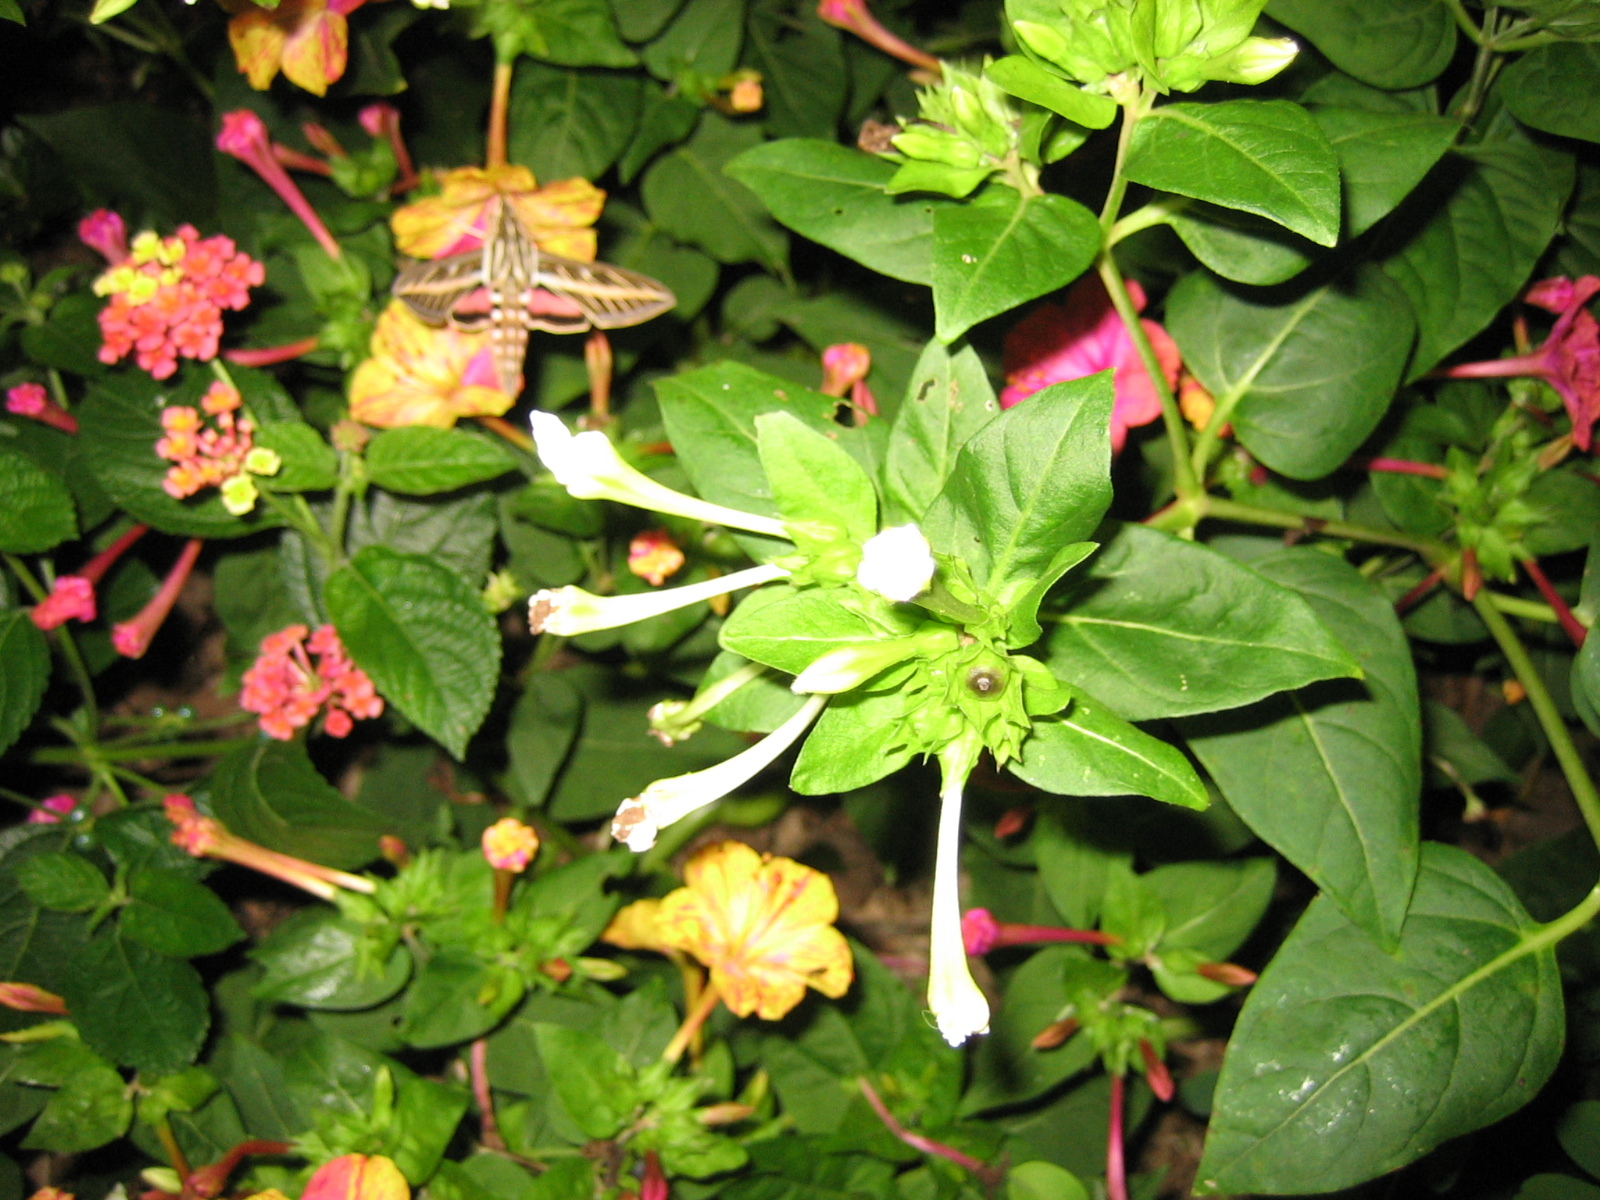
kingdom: Animalia
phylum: Arthropoda
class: Insecta
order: Lepidoptera
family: Sphingidae
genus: Hyles
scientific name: Hyles lineata
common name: White-lined sphinx
